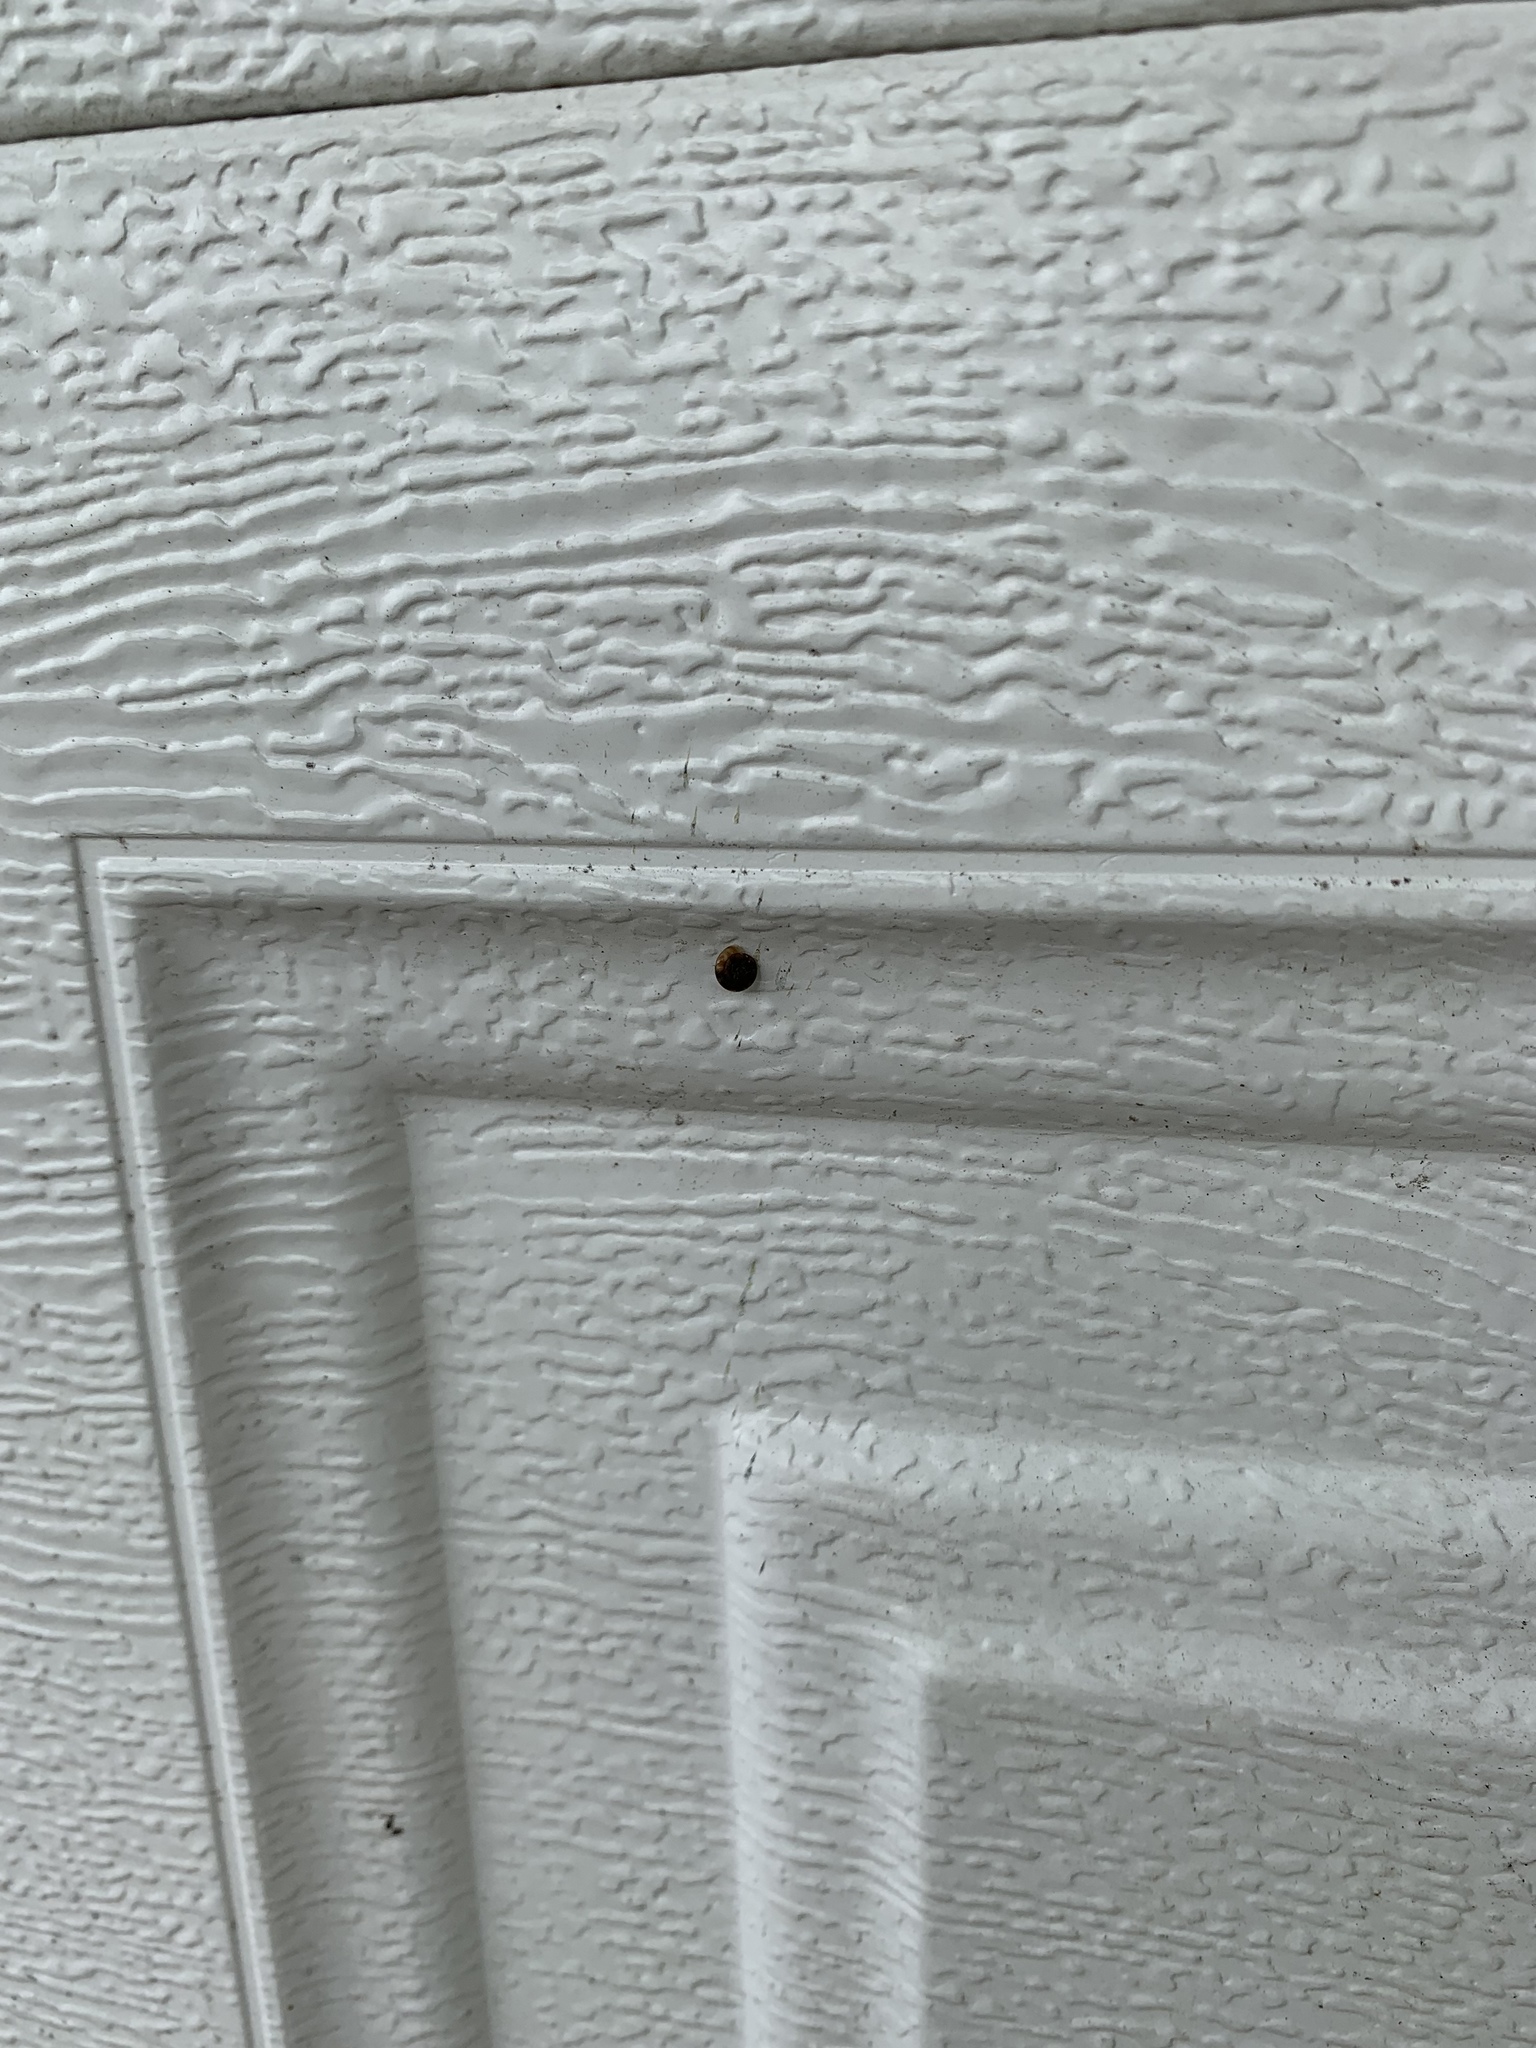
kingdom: Animalia
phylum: Mollusca
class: Gastropoda
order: Stylommatophora
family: Discidae
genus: Discus
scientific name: Discus rotundatus
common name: Rounded snail
